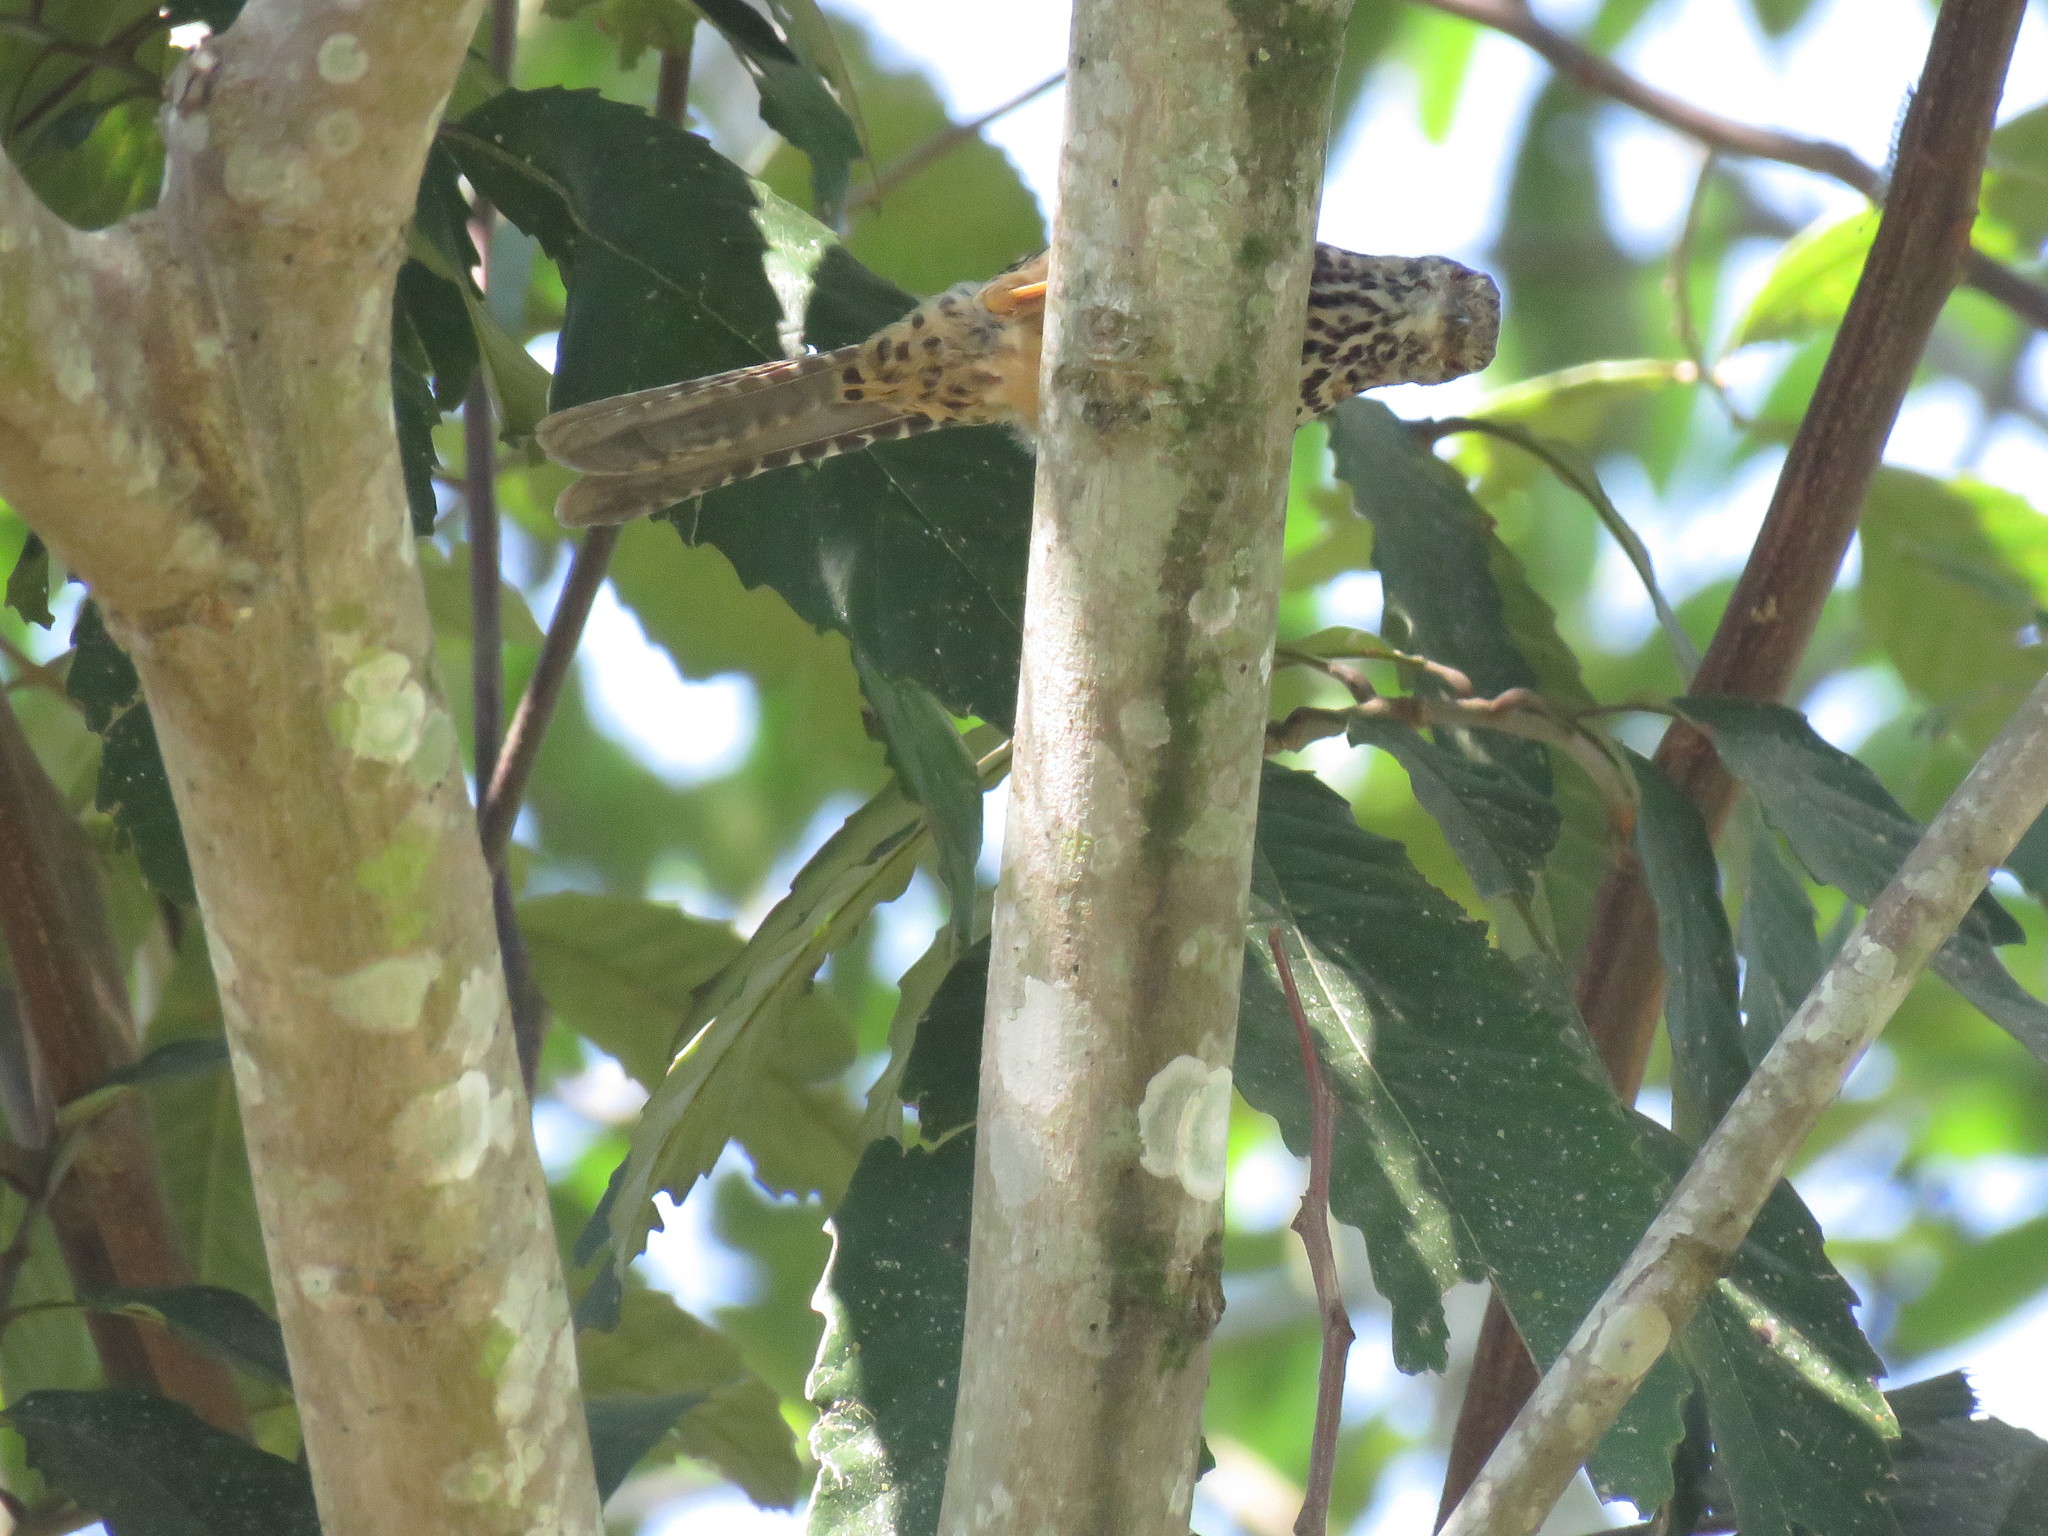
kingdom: Animalia
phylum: Chordata
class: Aves
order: Passeriformes
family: Troglodytidae
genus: Campylorhynchus
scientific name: Campylorhynchus zonatus
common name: Band-backed wren
